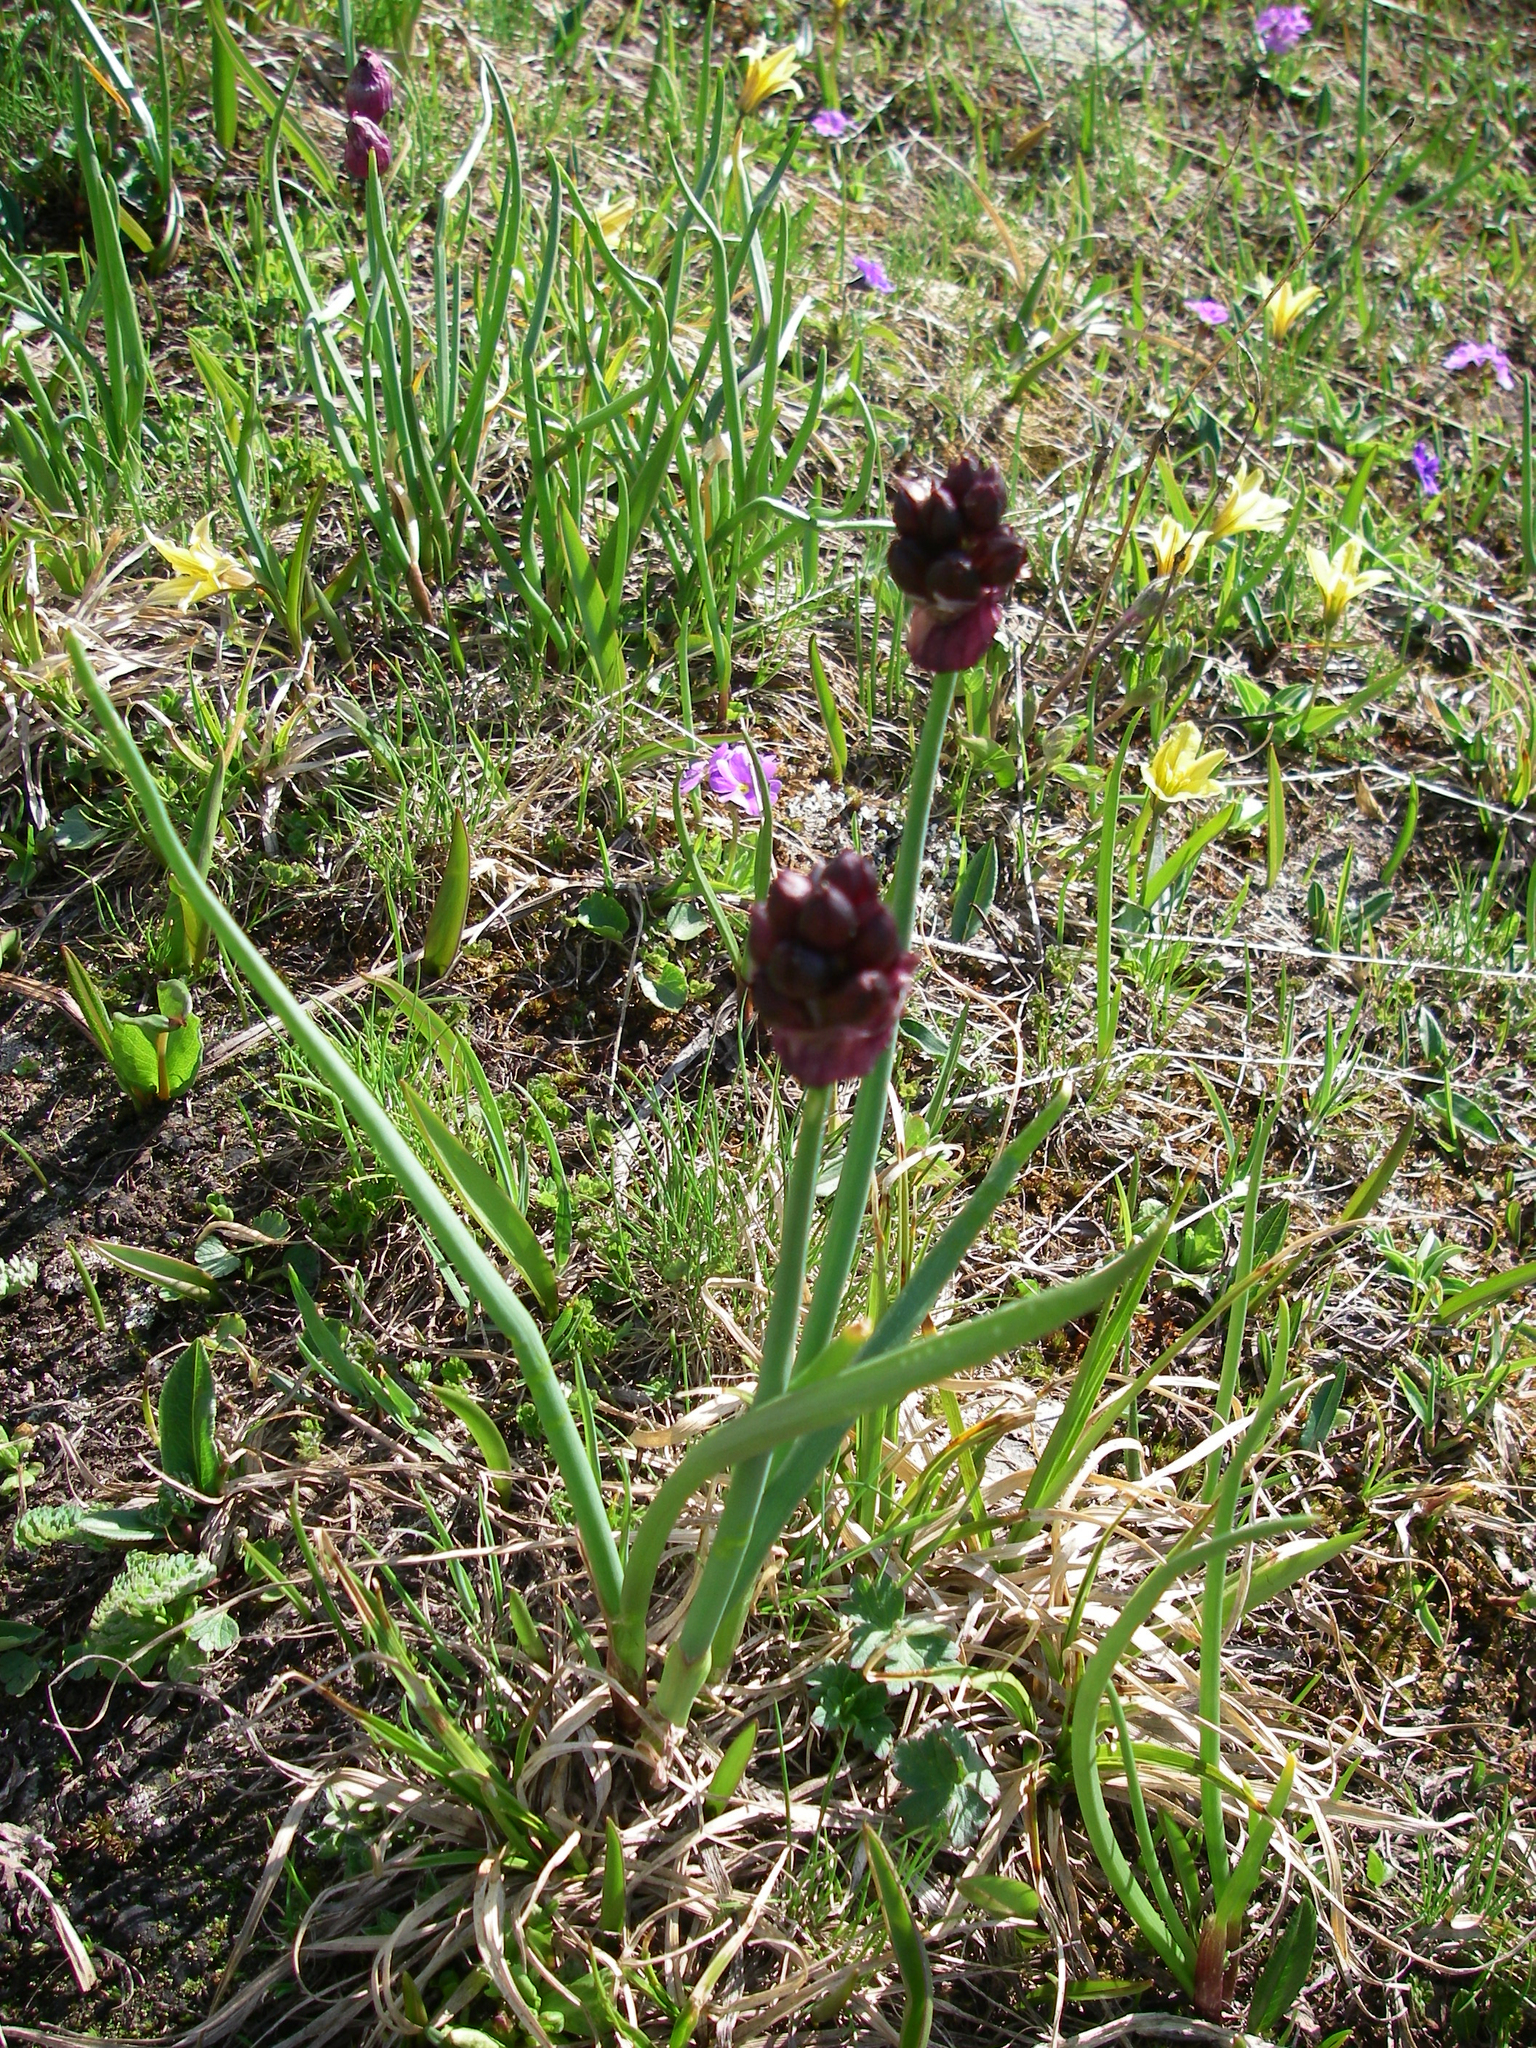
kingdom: Plantae
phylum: Tracheophyta
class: Liliopsida
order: Asparagales
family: Amaryllidaceae
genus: Allium
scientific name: Allium atrosanguineum
